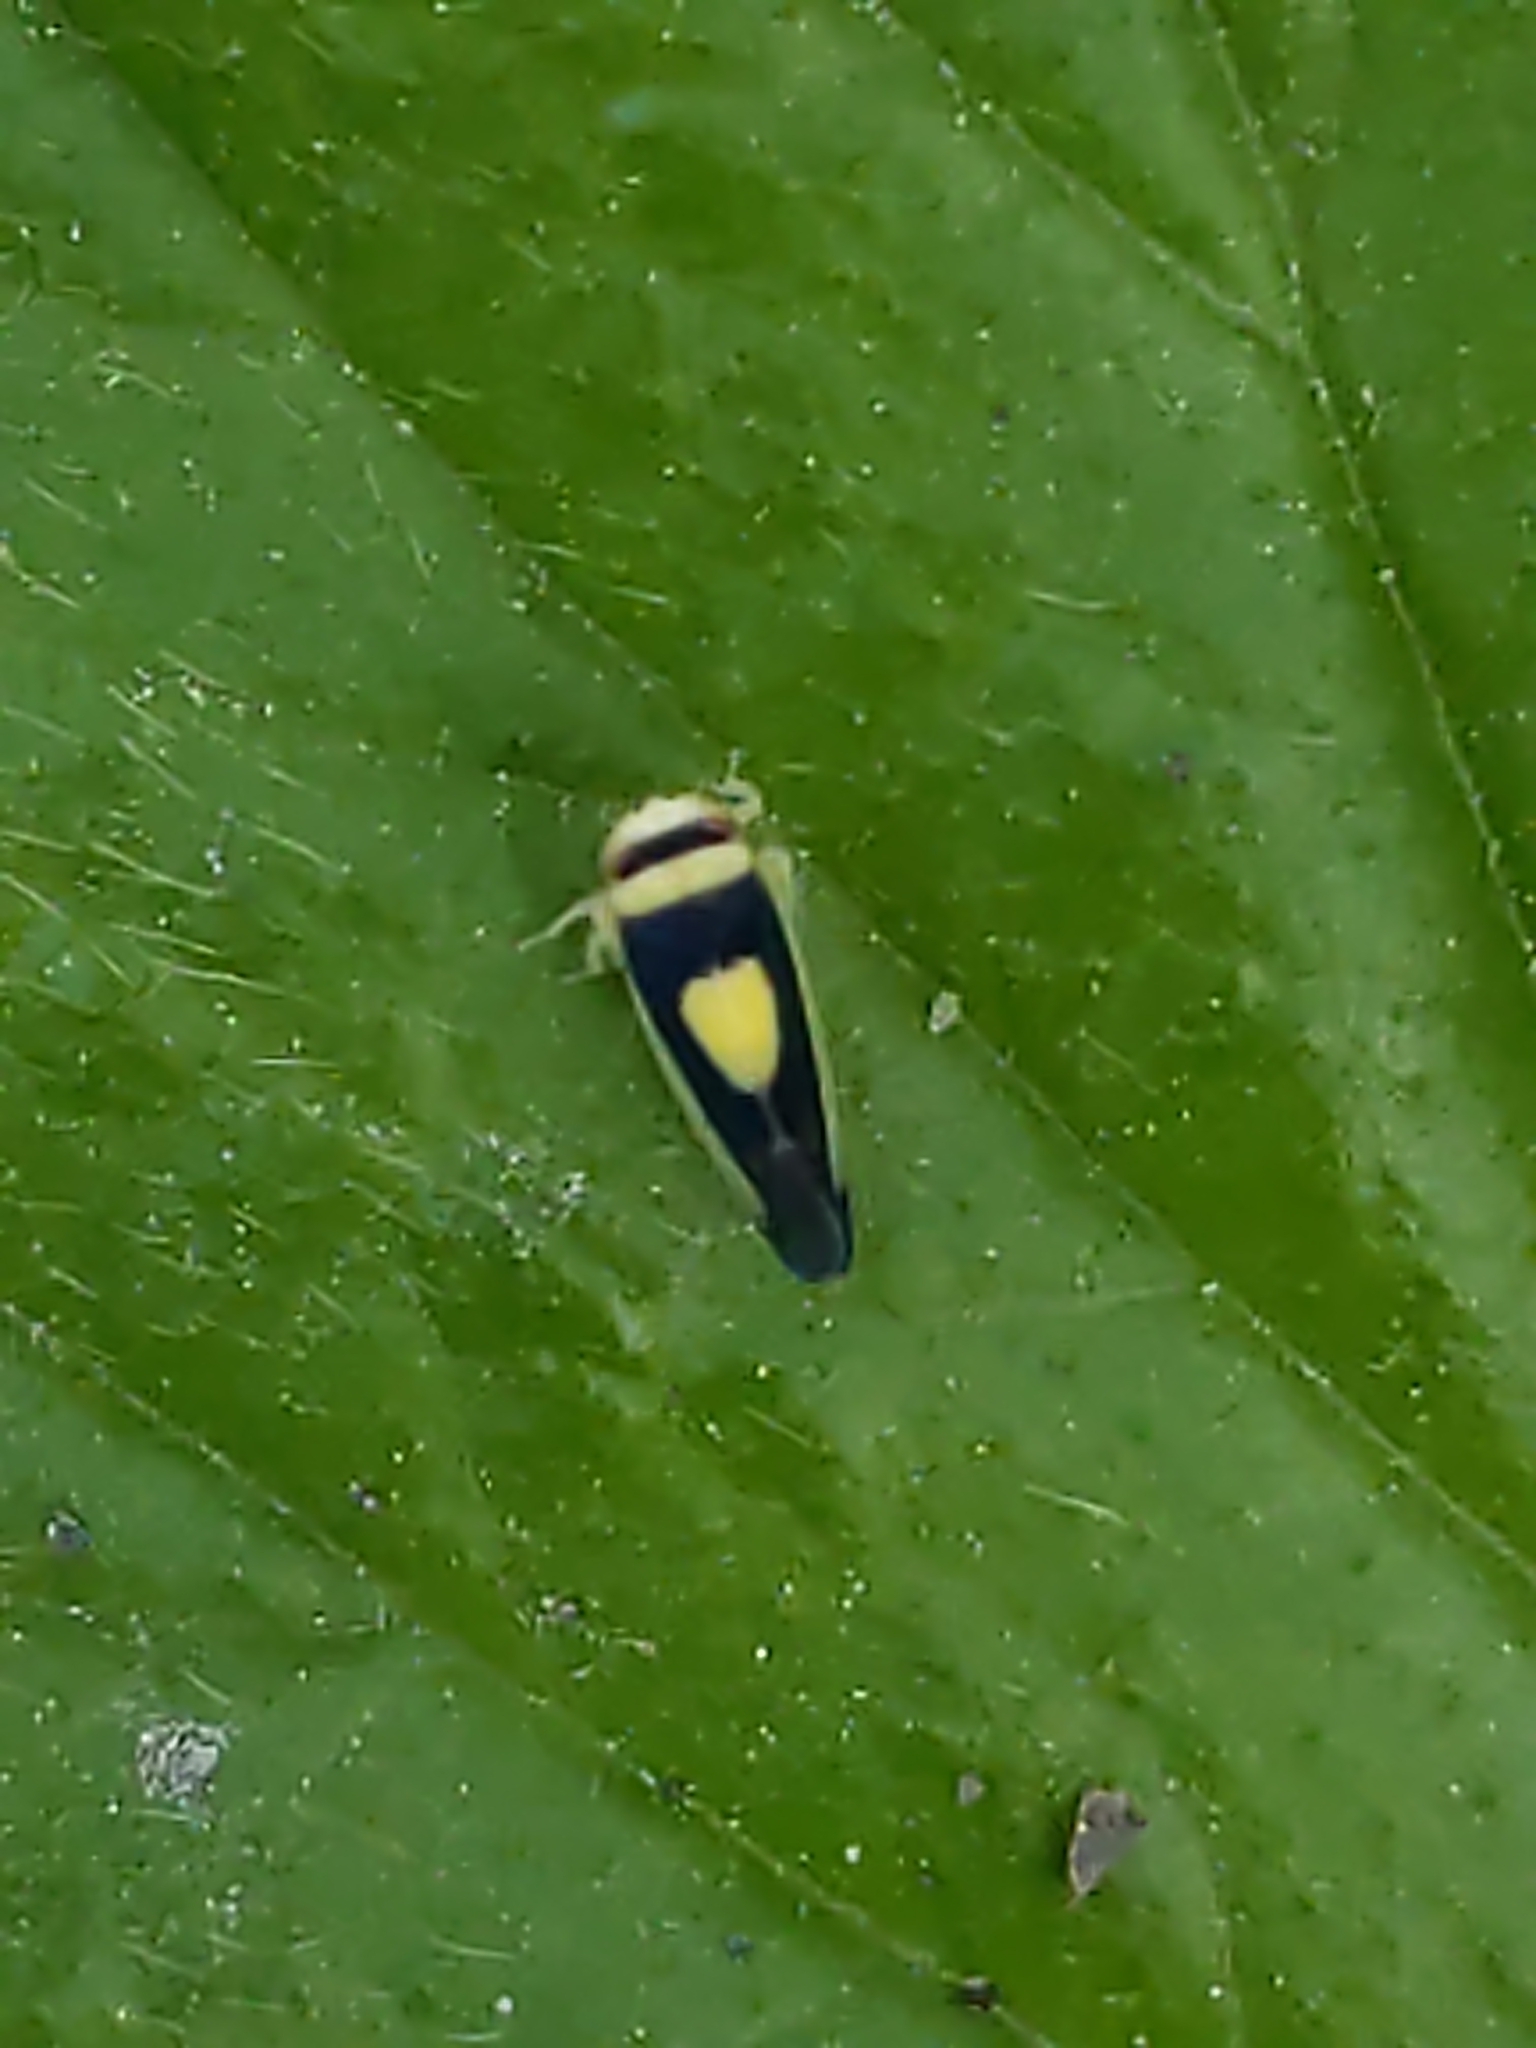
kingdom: Animalia
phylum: Arthropoda
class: Insecta
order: Hemiptera
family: Cicadellidae
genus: Colladonus
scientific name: Colladonus clitellarius
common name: The saddleback leafhopper
